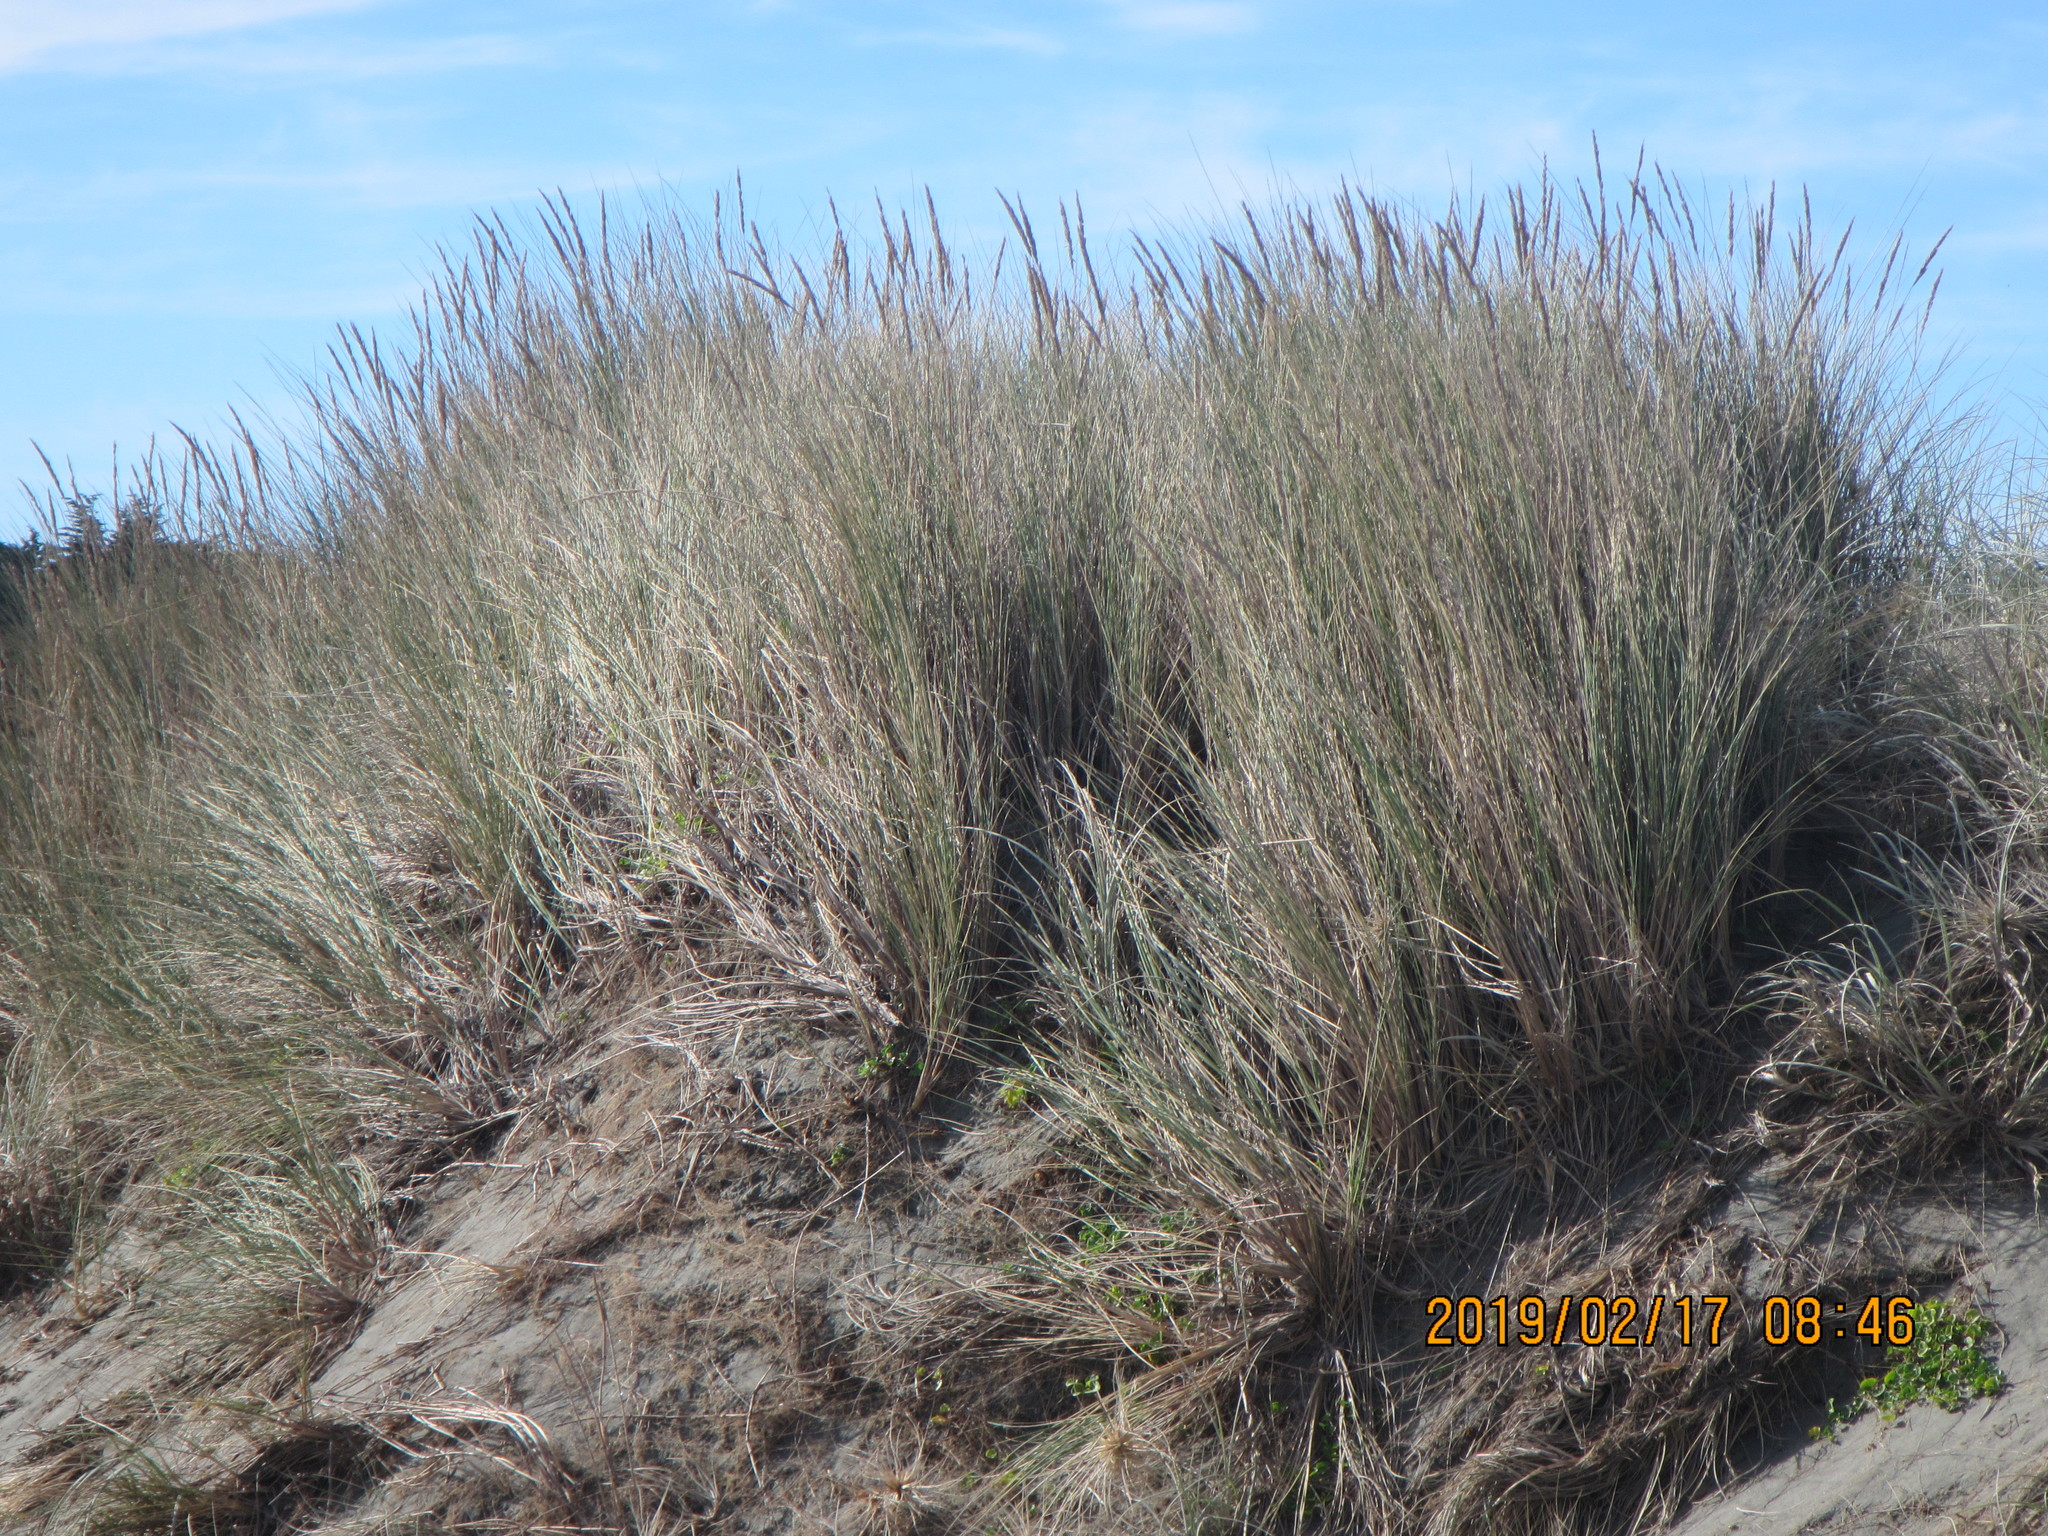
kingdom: Plantae
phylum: Tracheophyta
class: Liliopsida
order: Poales
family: Poaceae
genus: Calamagrostis
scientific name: Calamagrostis arenaria
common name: European beachgrass
